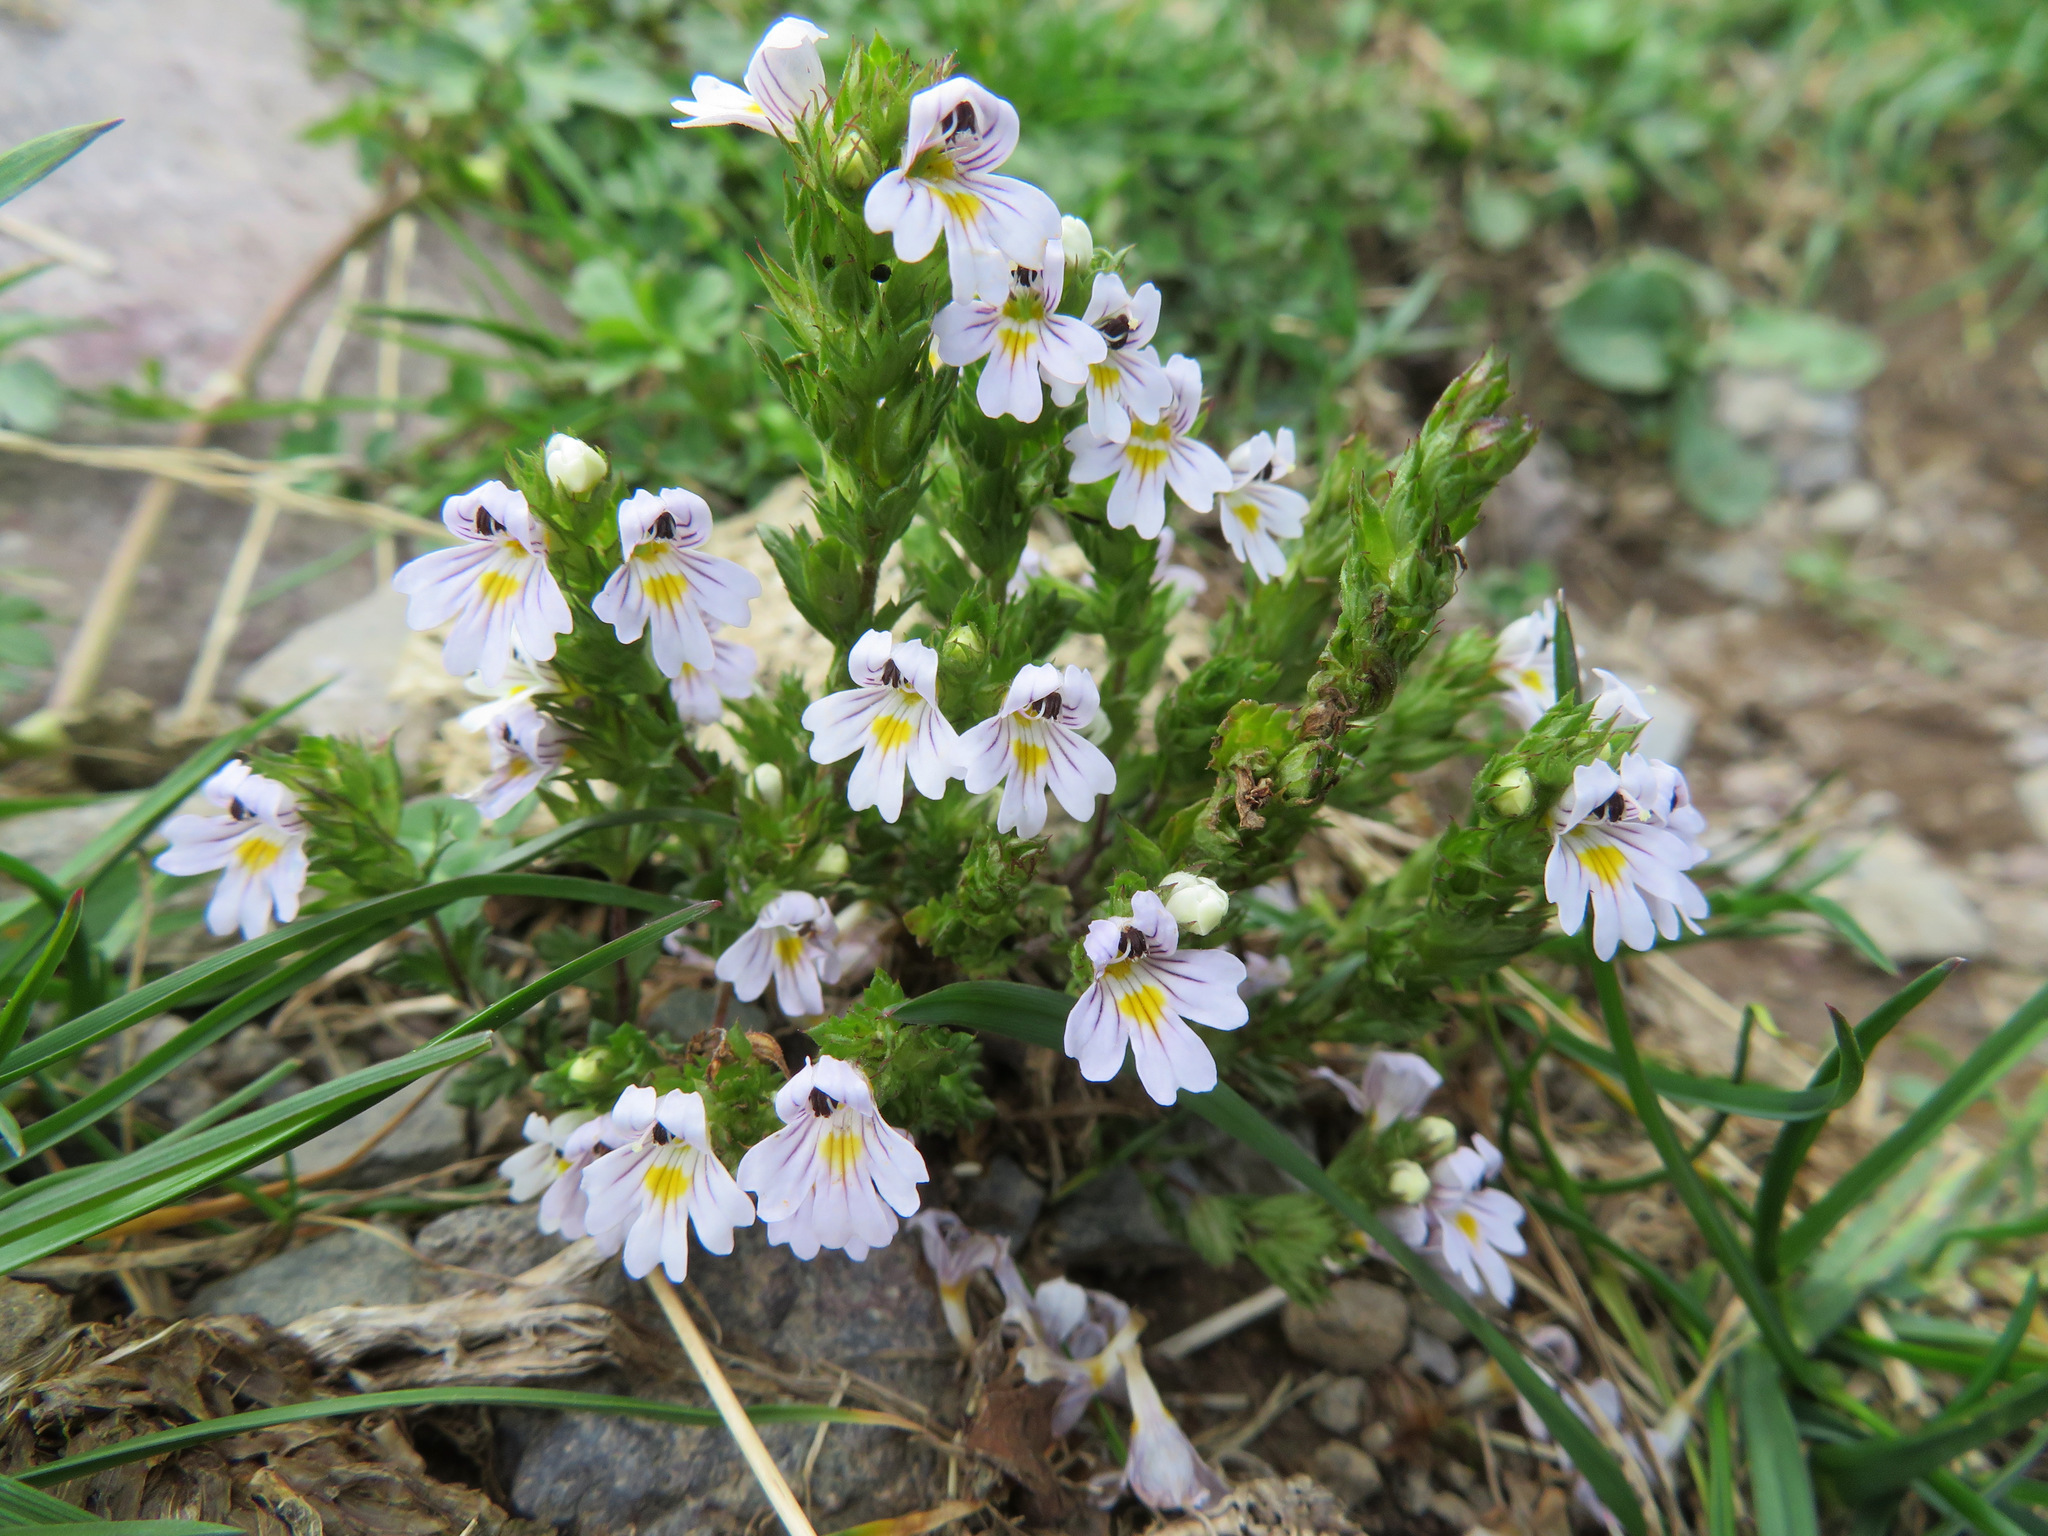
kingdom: Plantae
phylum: Tracheophyta
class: Magnoliopsida
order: Lamiales
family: Orobanchaceae
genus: Euphrasia
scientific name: Euphrasia alpina
